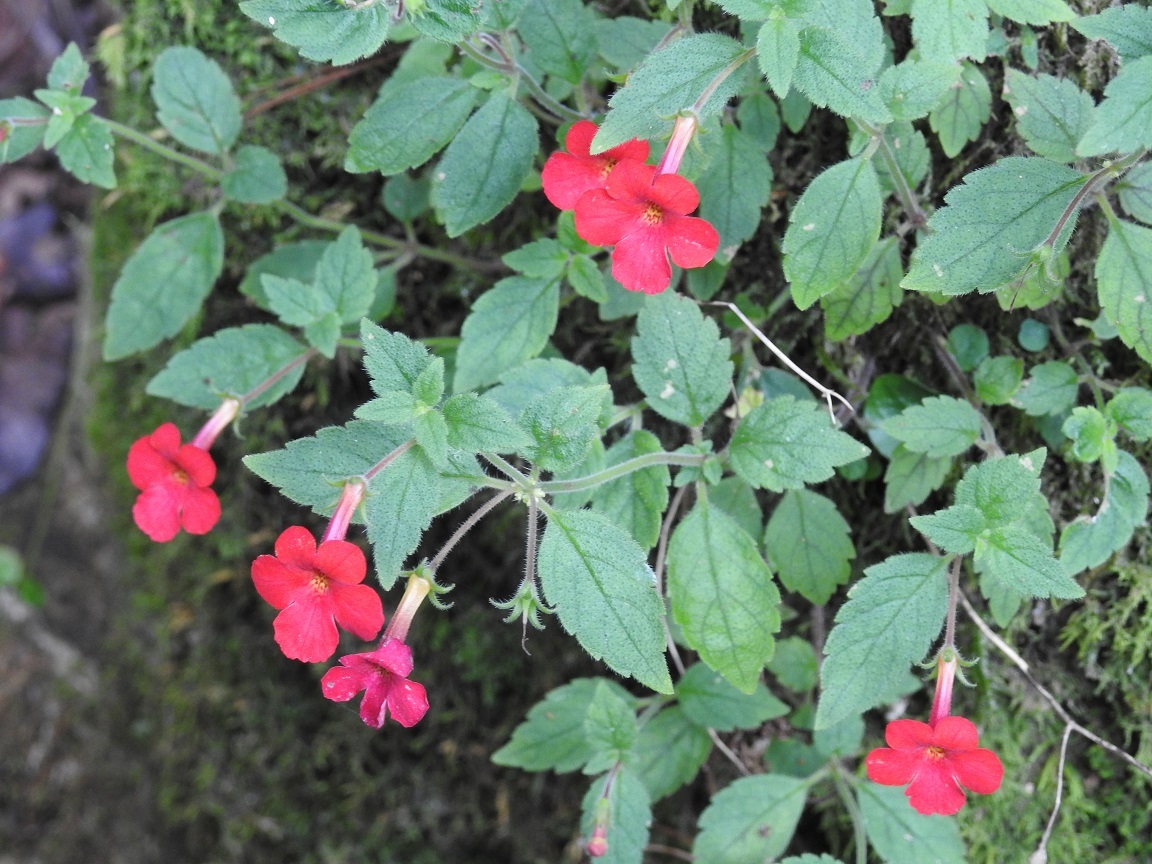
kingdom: Plantae
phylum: Tracheophyta
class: Magnoliopsida
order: Lamiales
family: Gesneriaceae
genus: Achimenes
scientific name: Achimenes erecta
